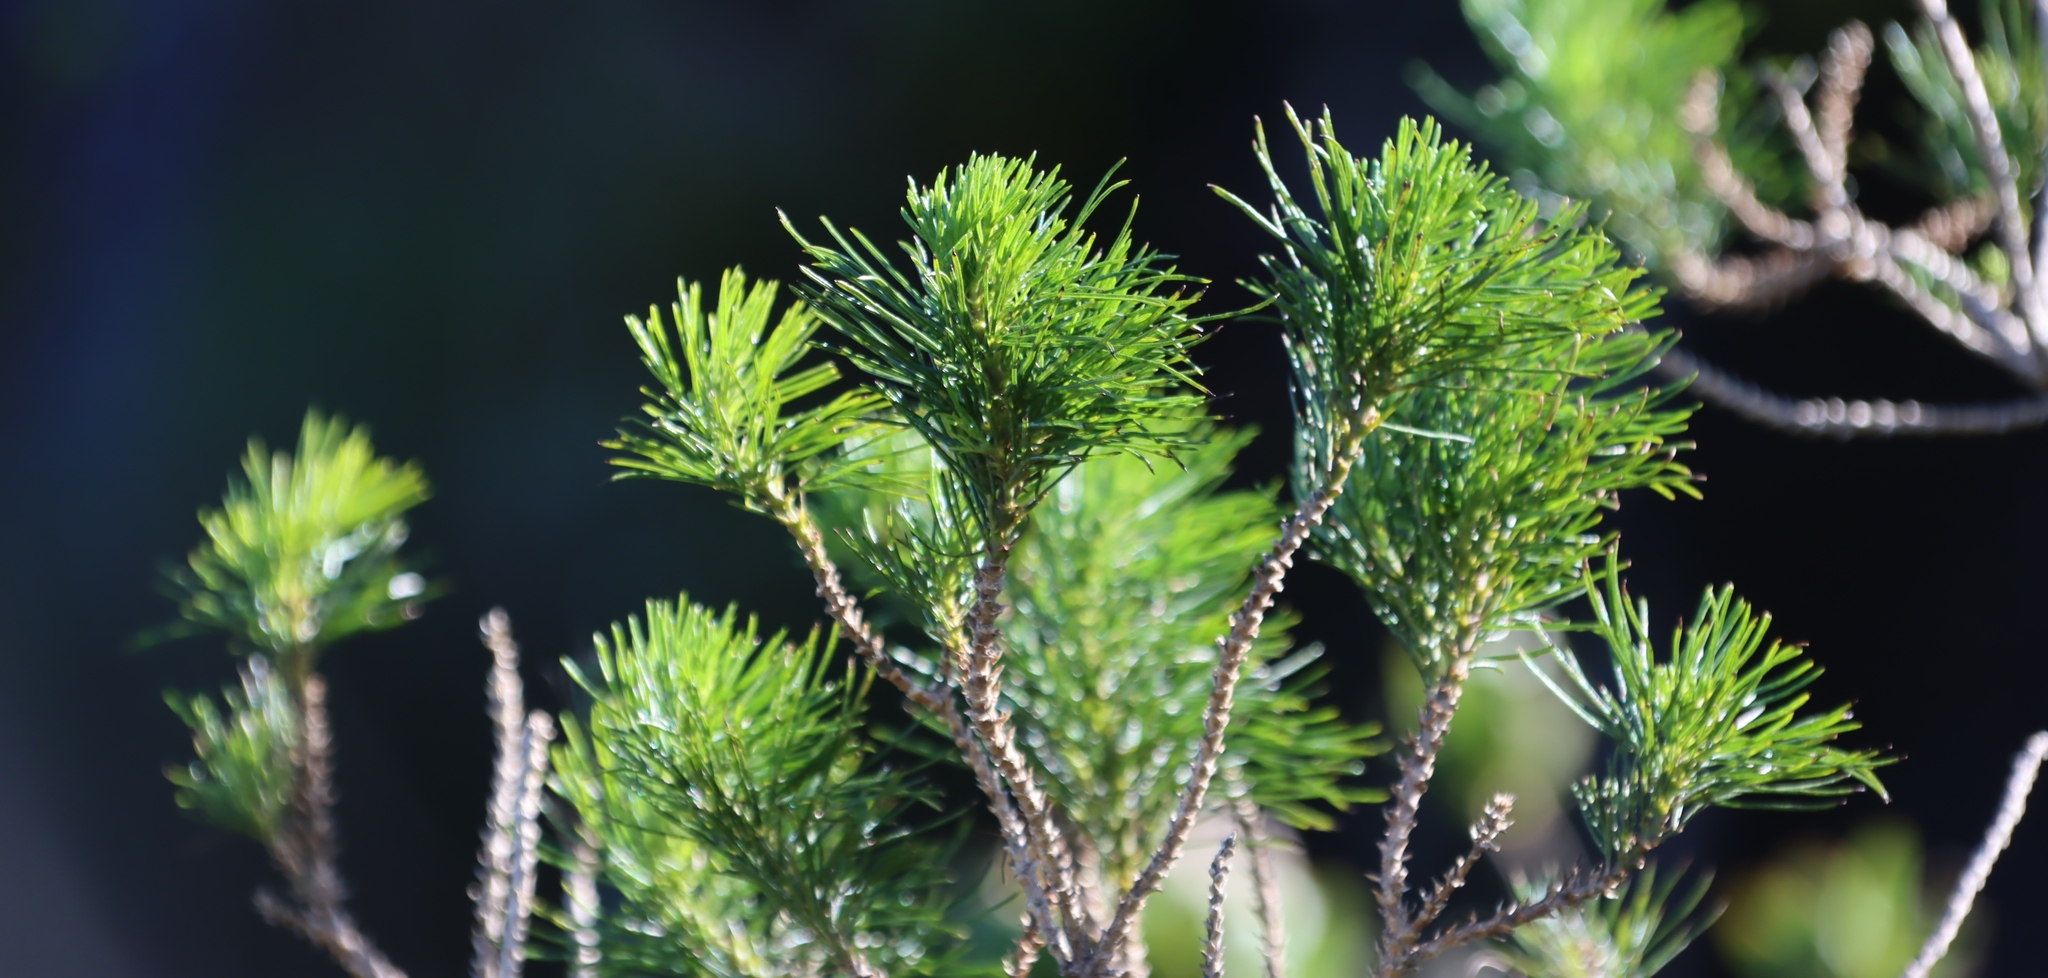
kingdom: Plantae
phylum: Tracheophyta
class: Magnoliopsida
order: Fabales
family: Fabaceae
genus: Psoralea
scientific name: Psoralea pinnata
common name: African scurfpea
